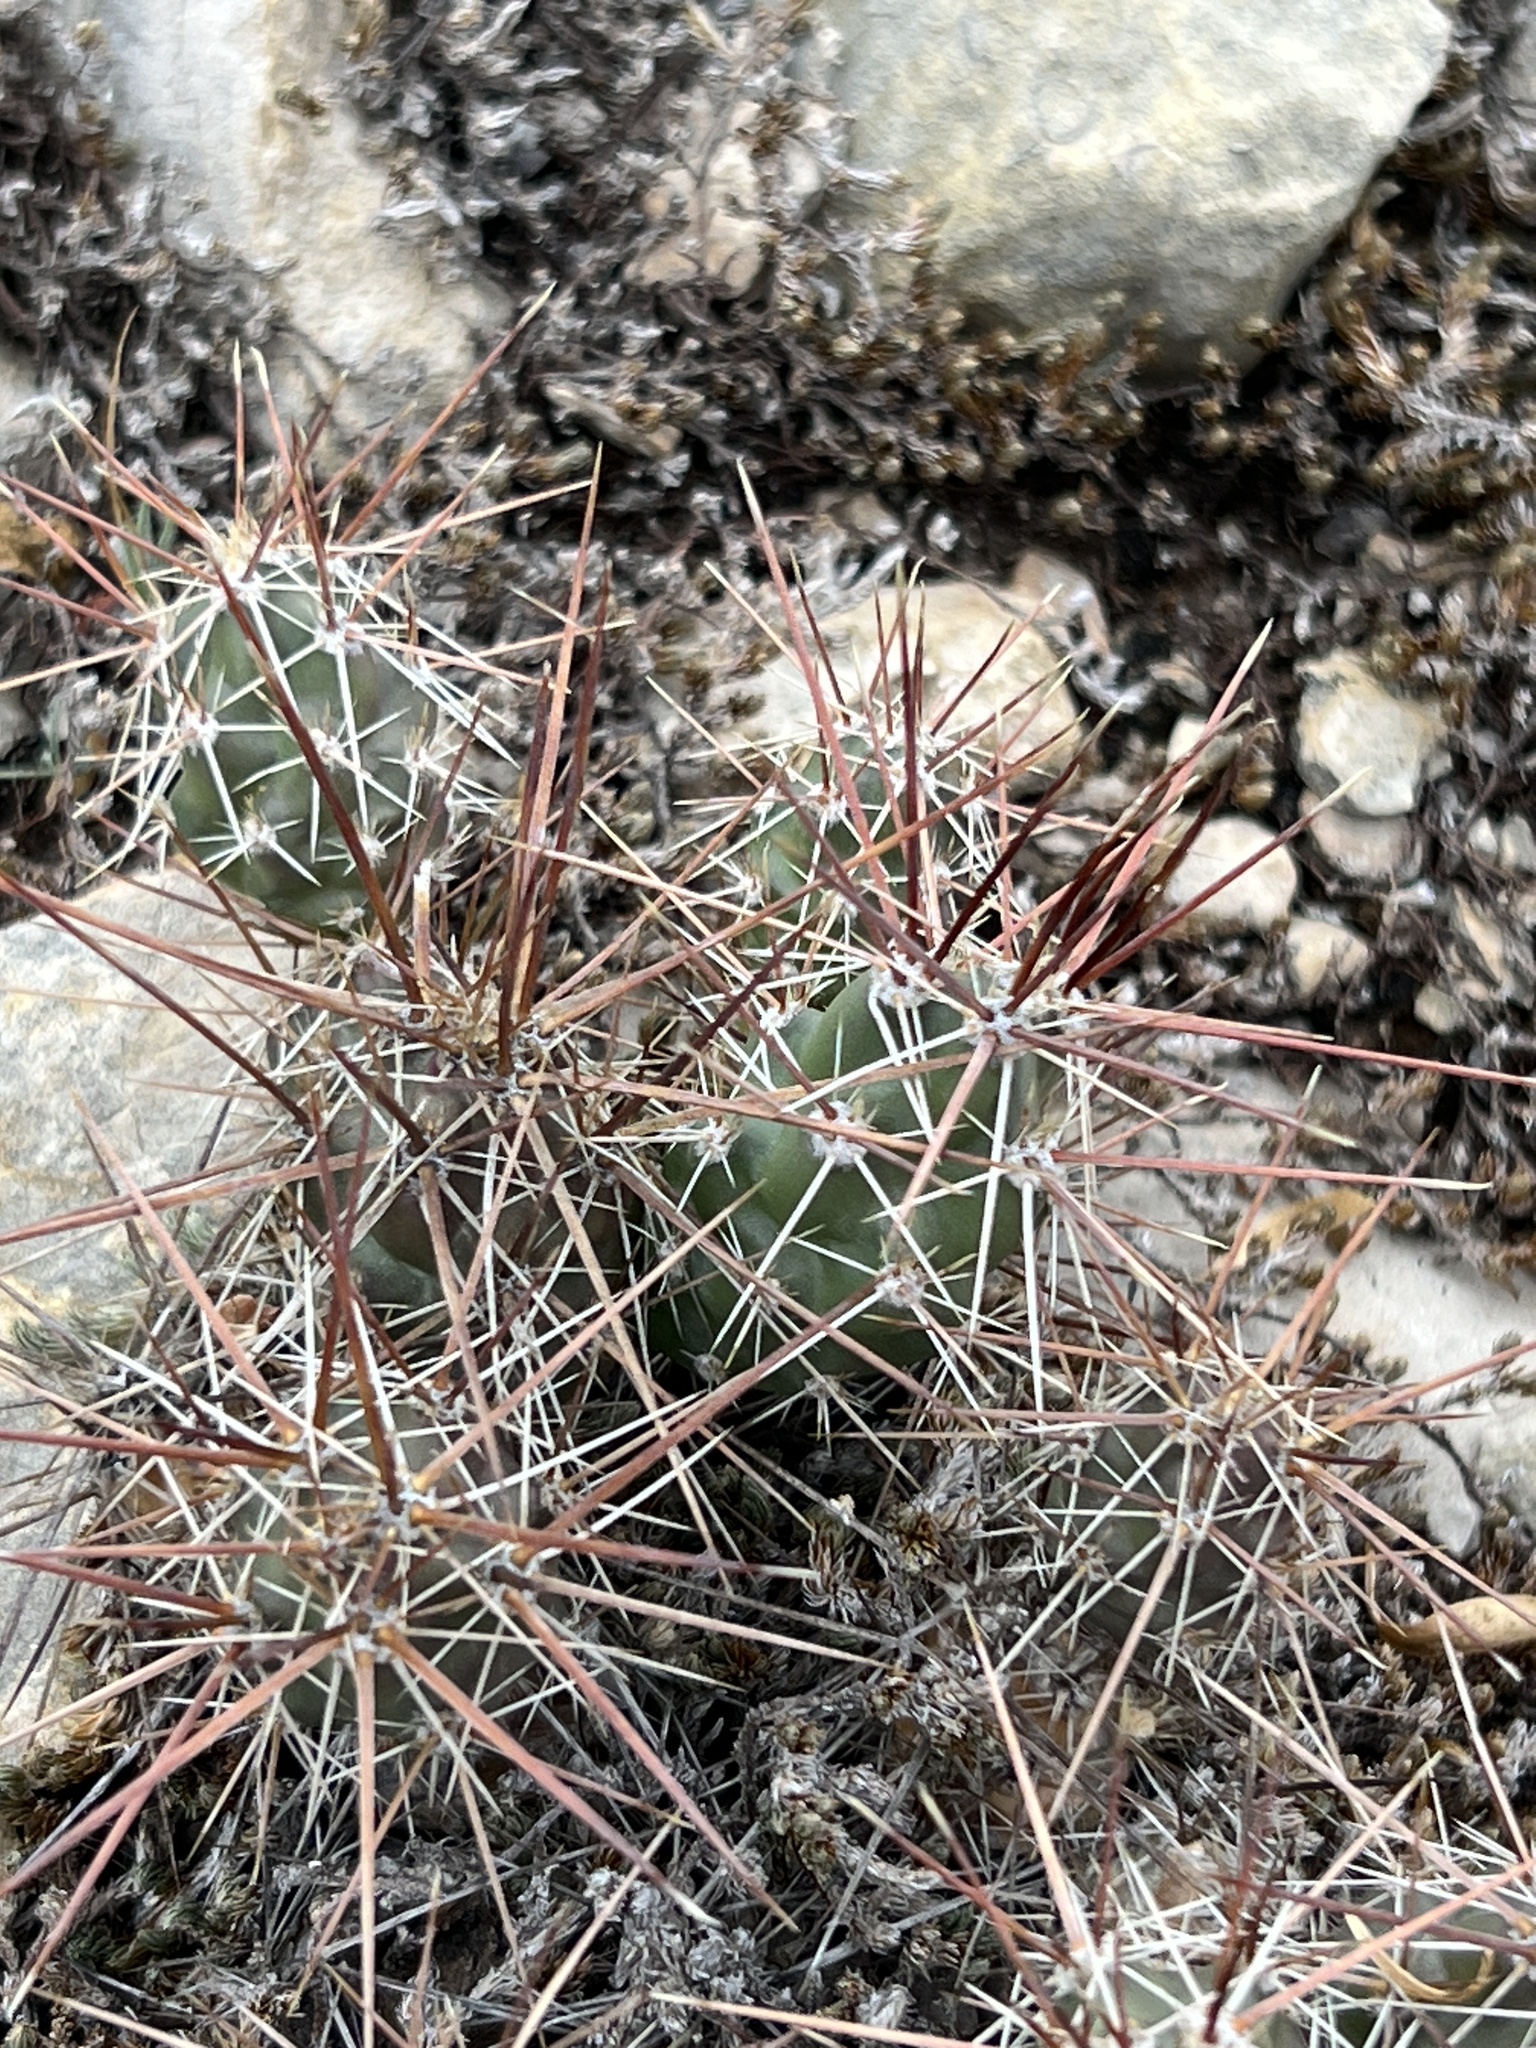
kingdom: Plantae
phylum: Tracheophyta
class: Magnoliopsida
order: Caryophyllales
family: Cactaceae
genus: Grusonia
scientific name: Grusonia schottii
